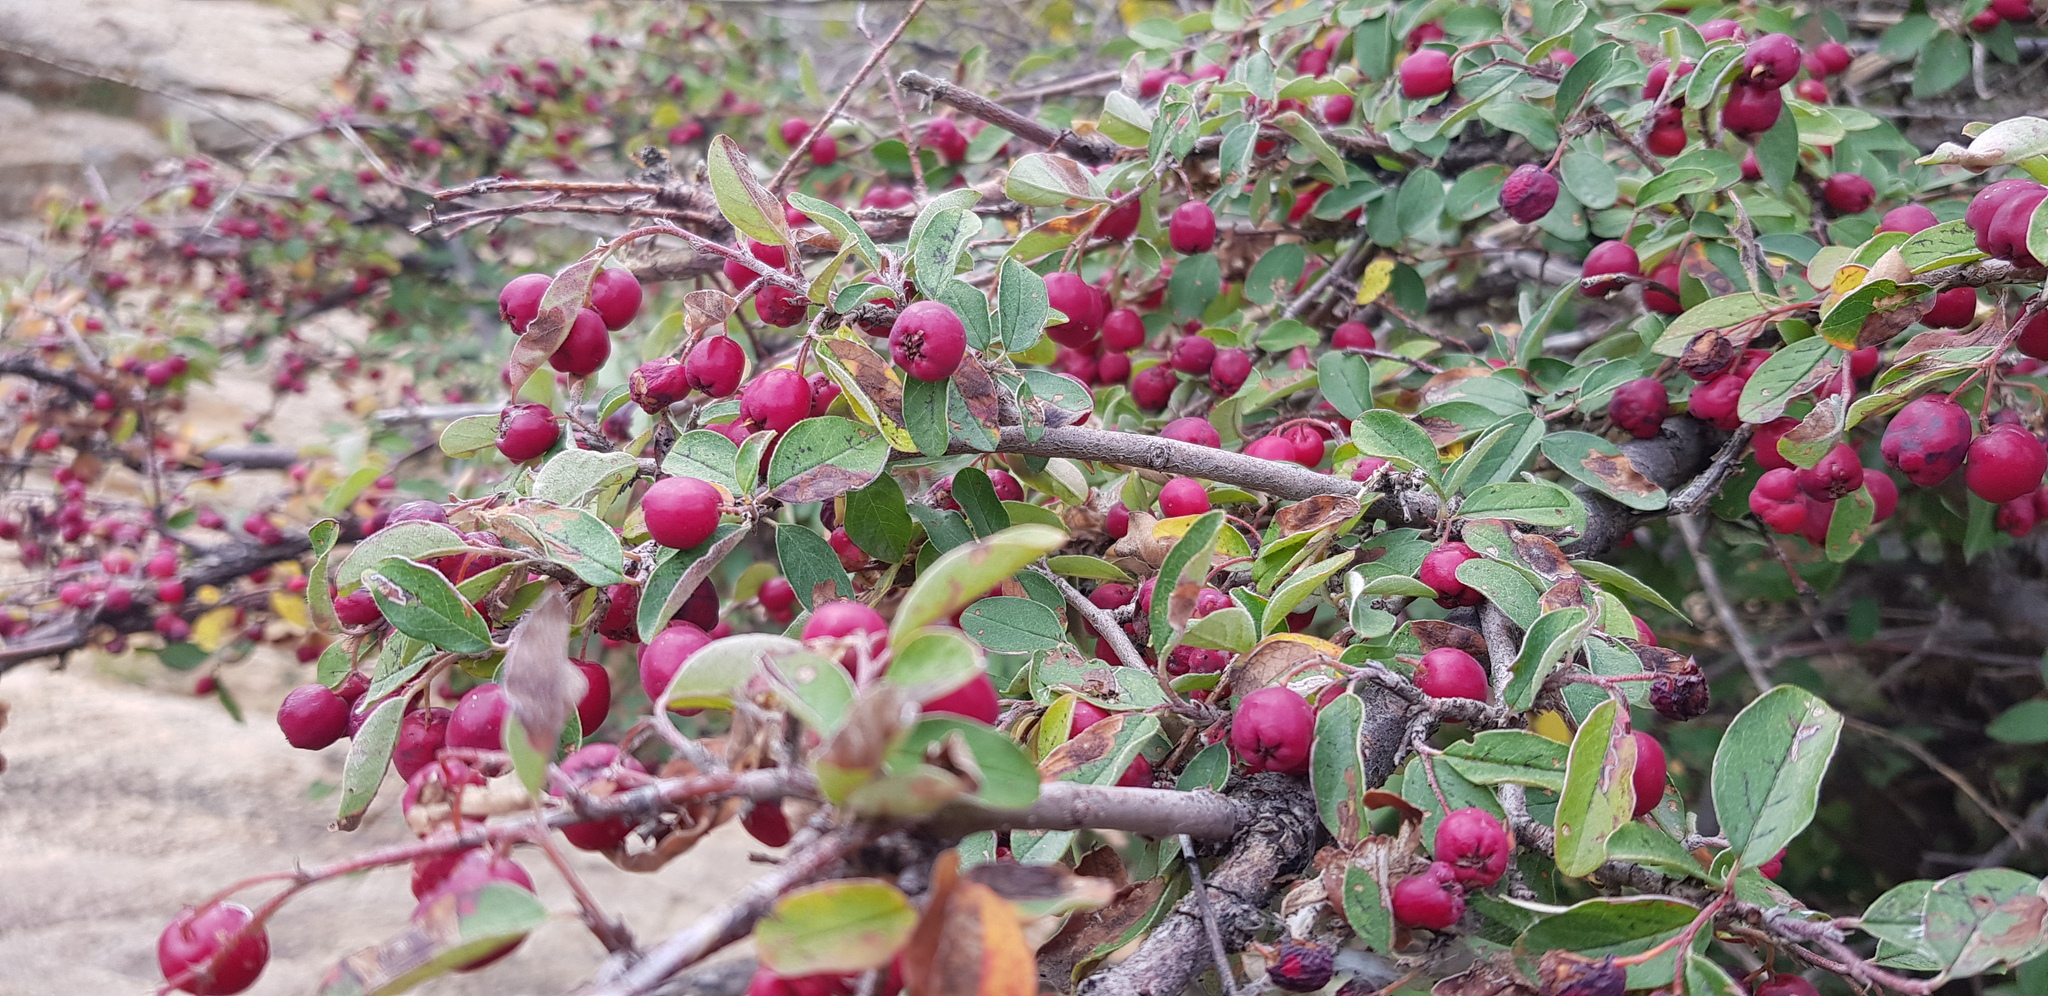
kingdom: Plantae
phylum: Tracheophyta
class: Magnoliopsida
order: Rosales
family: Rosaceae
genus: Cotoneaster
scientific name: Cotoneaster melanocarpus
